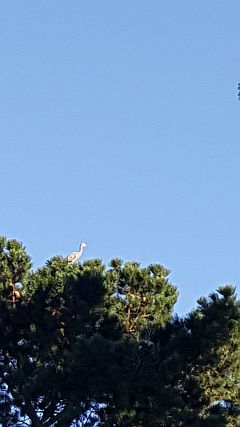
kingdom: Animalia
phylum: Chordata
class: Aves
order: Pelecaniformes
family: Ardeidae
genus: Egretta
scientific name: Egretta novaehollandiae
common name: White-faced heron
